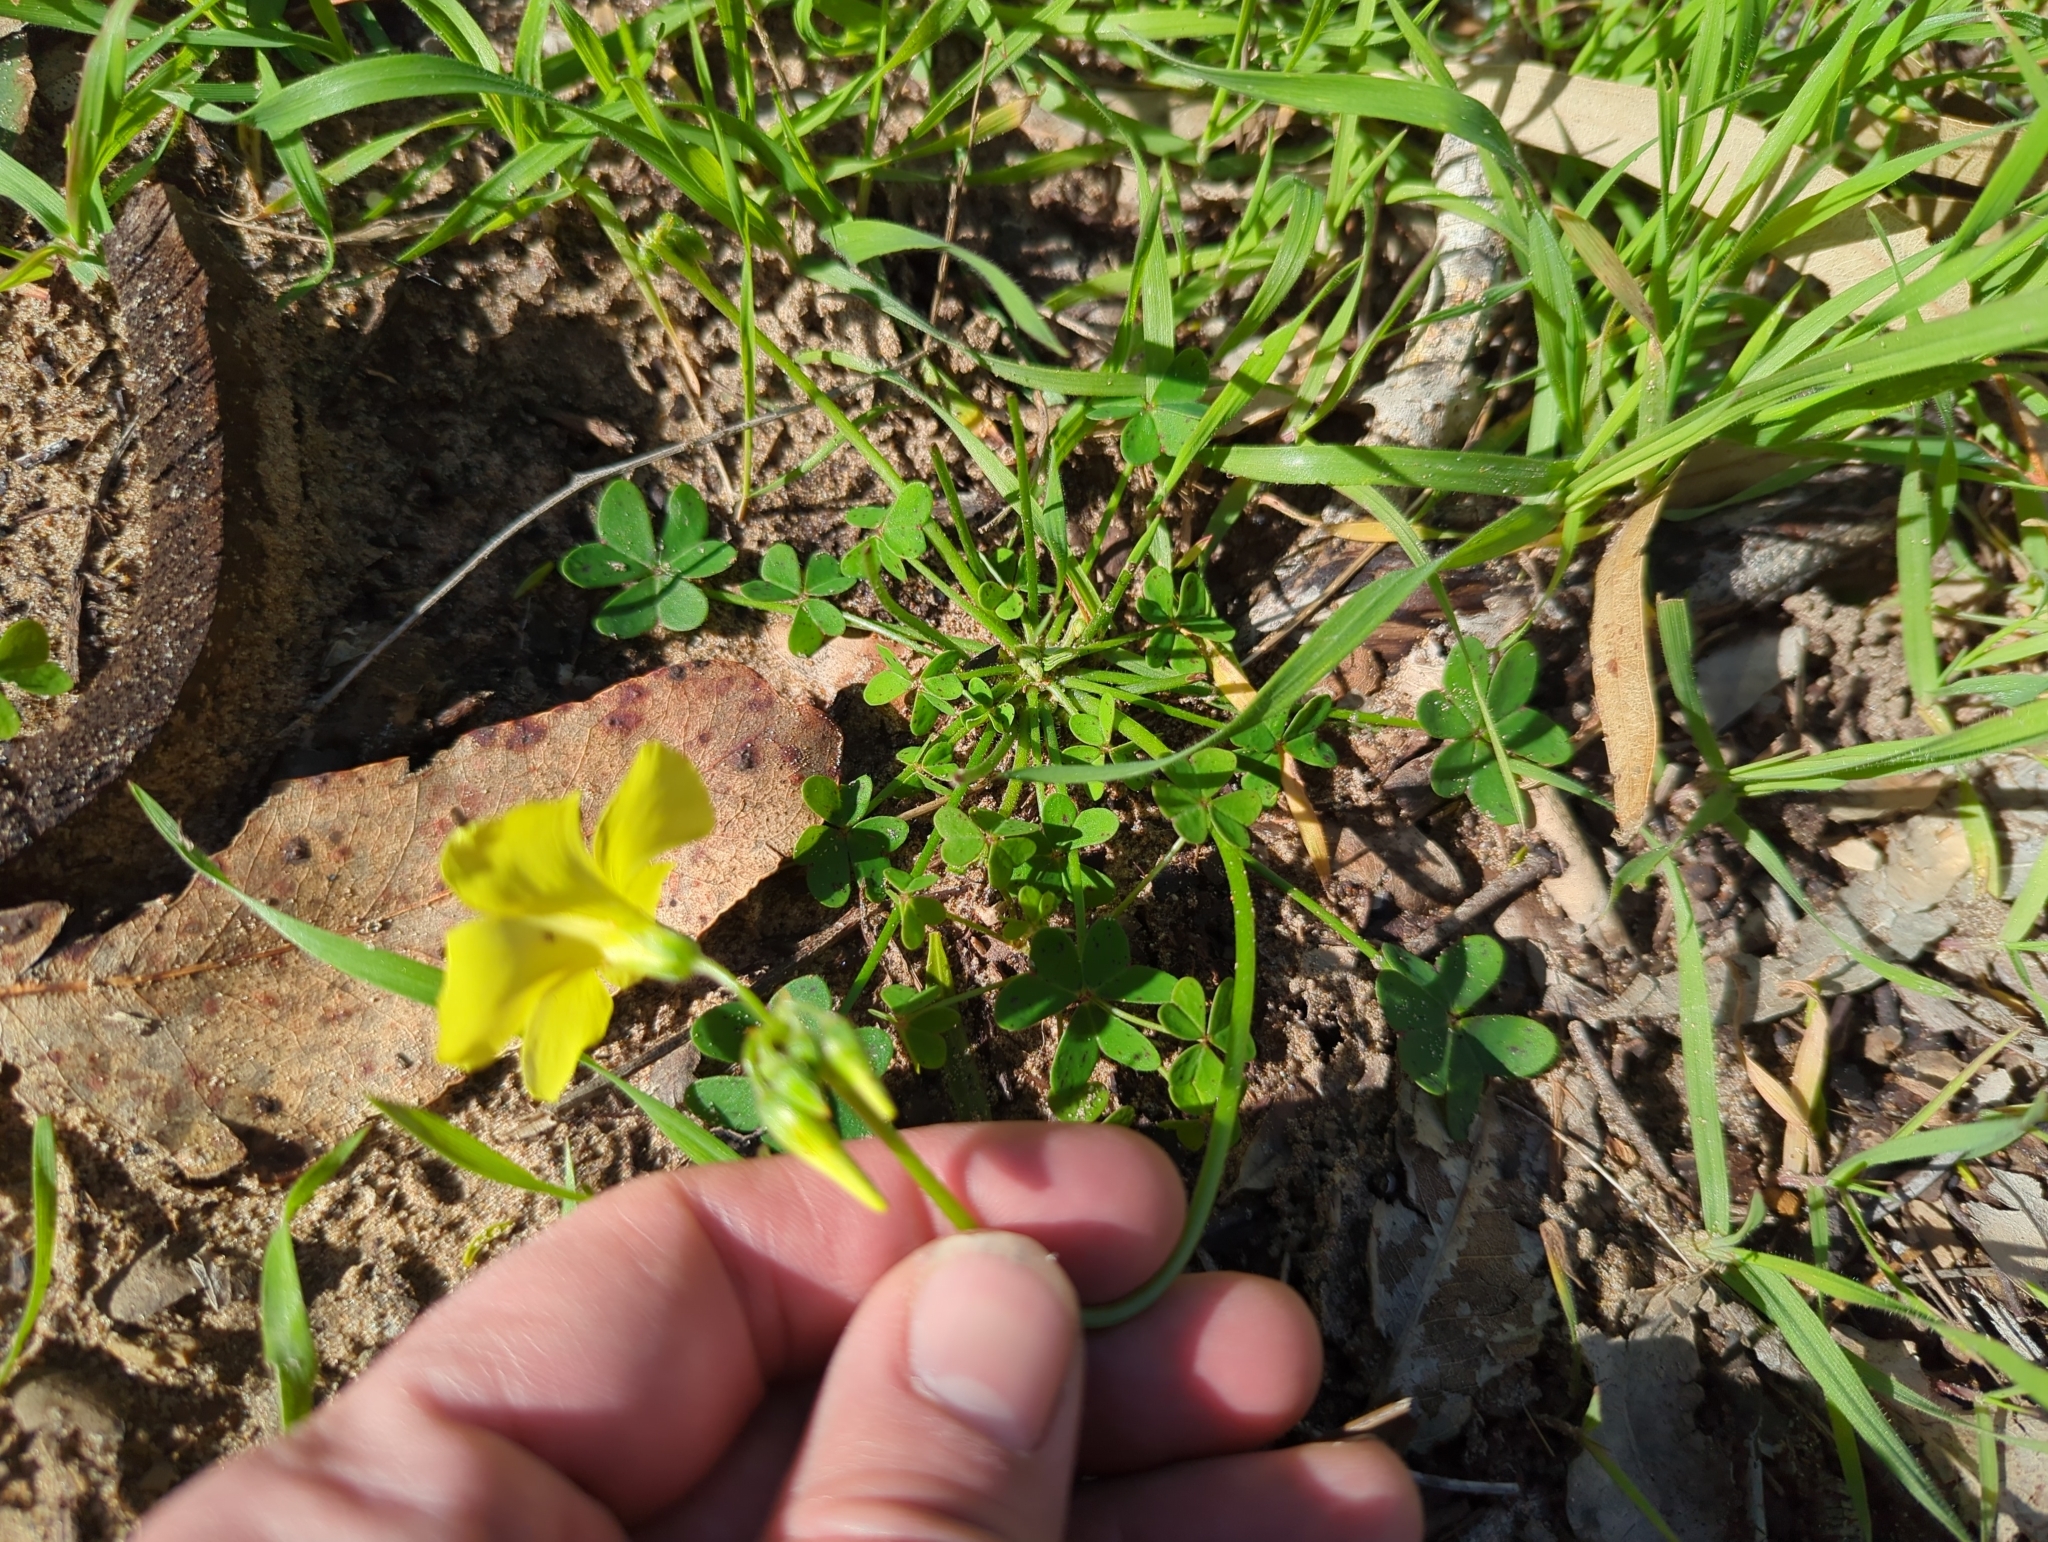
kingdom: Plantae
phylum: Tracheophyta
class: Magnoliopsida
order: Oxalidales
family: Oxalidaceae
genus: Oxalis
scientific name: Oxalis pes-caprae
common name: Bermuda-buttercup
